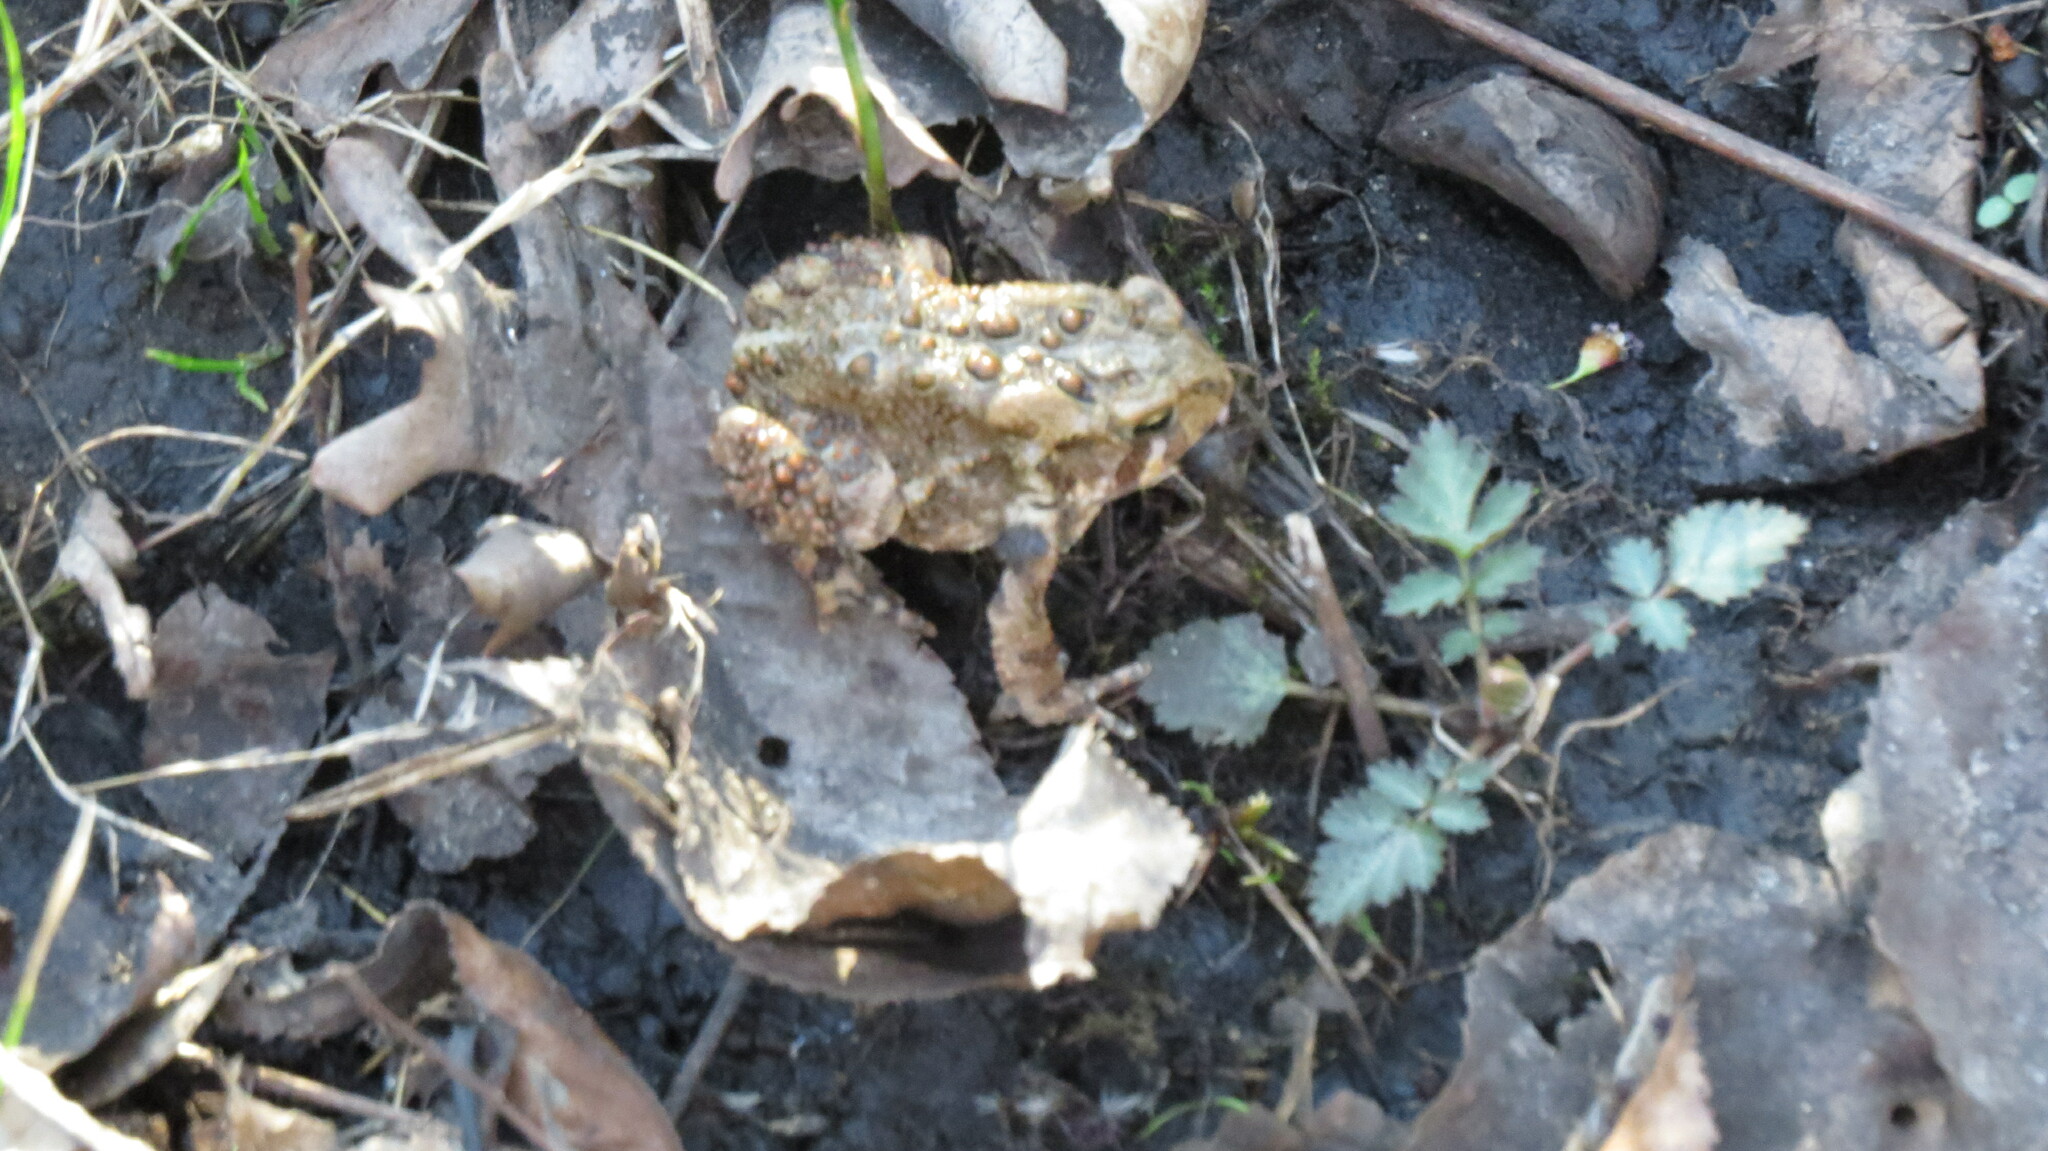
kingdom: Animalia
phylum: Chordata
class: Amphibia
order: Anura
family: Bufonidae
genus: Anaxyrus
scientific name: Anaxyrus americanus
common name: American toad
